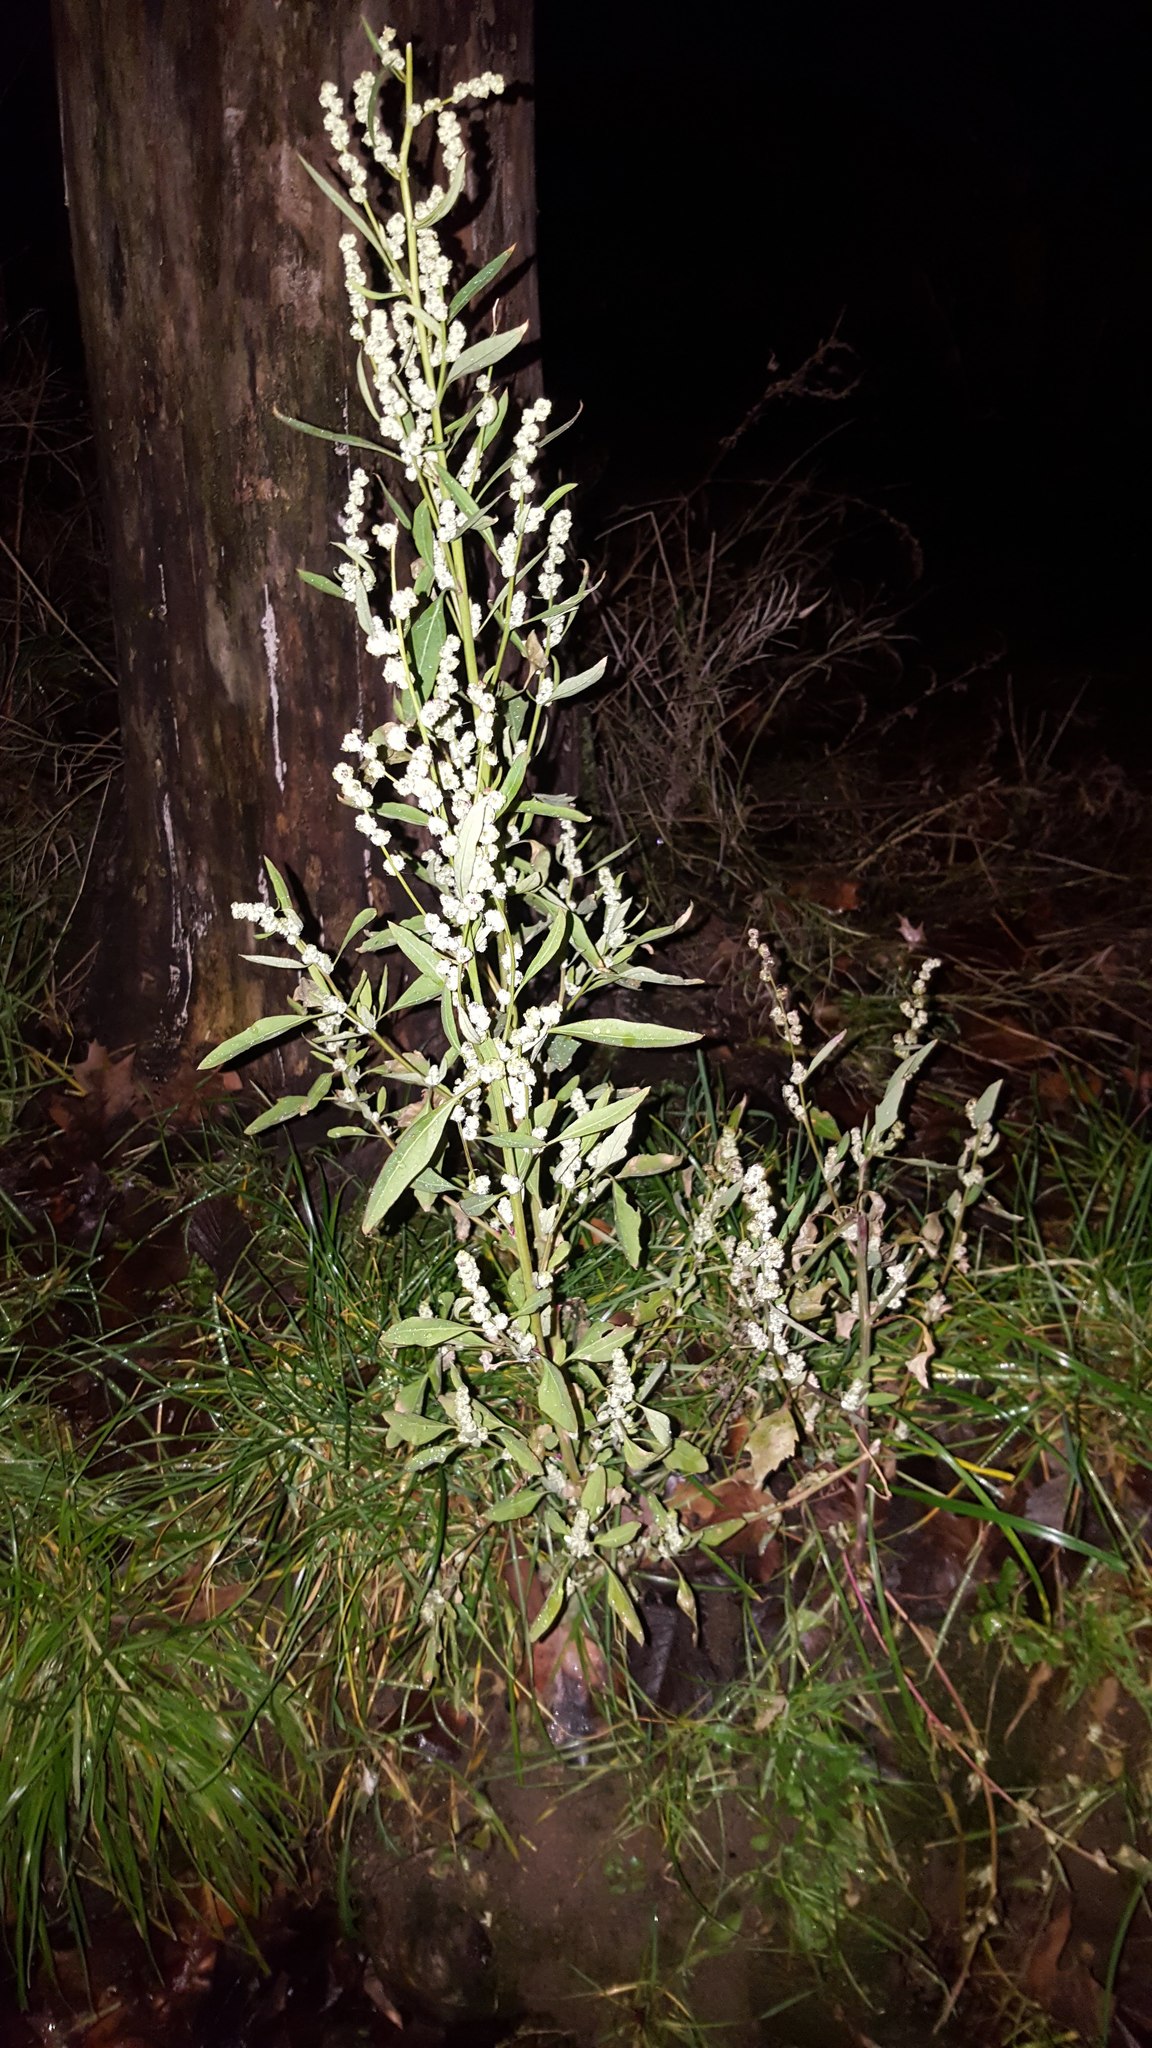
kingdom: Plantae
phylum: Tracheophyta
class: Magnoliopsida
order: Caryophyllales
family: Amaranthaceae
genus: Chenopodium
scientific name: Chenopodium album
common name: Fat-hen
